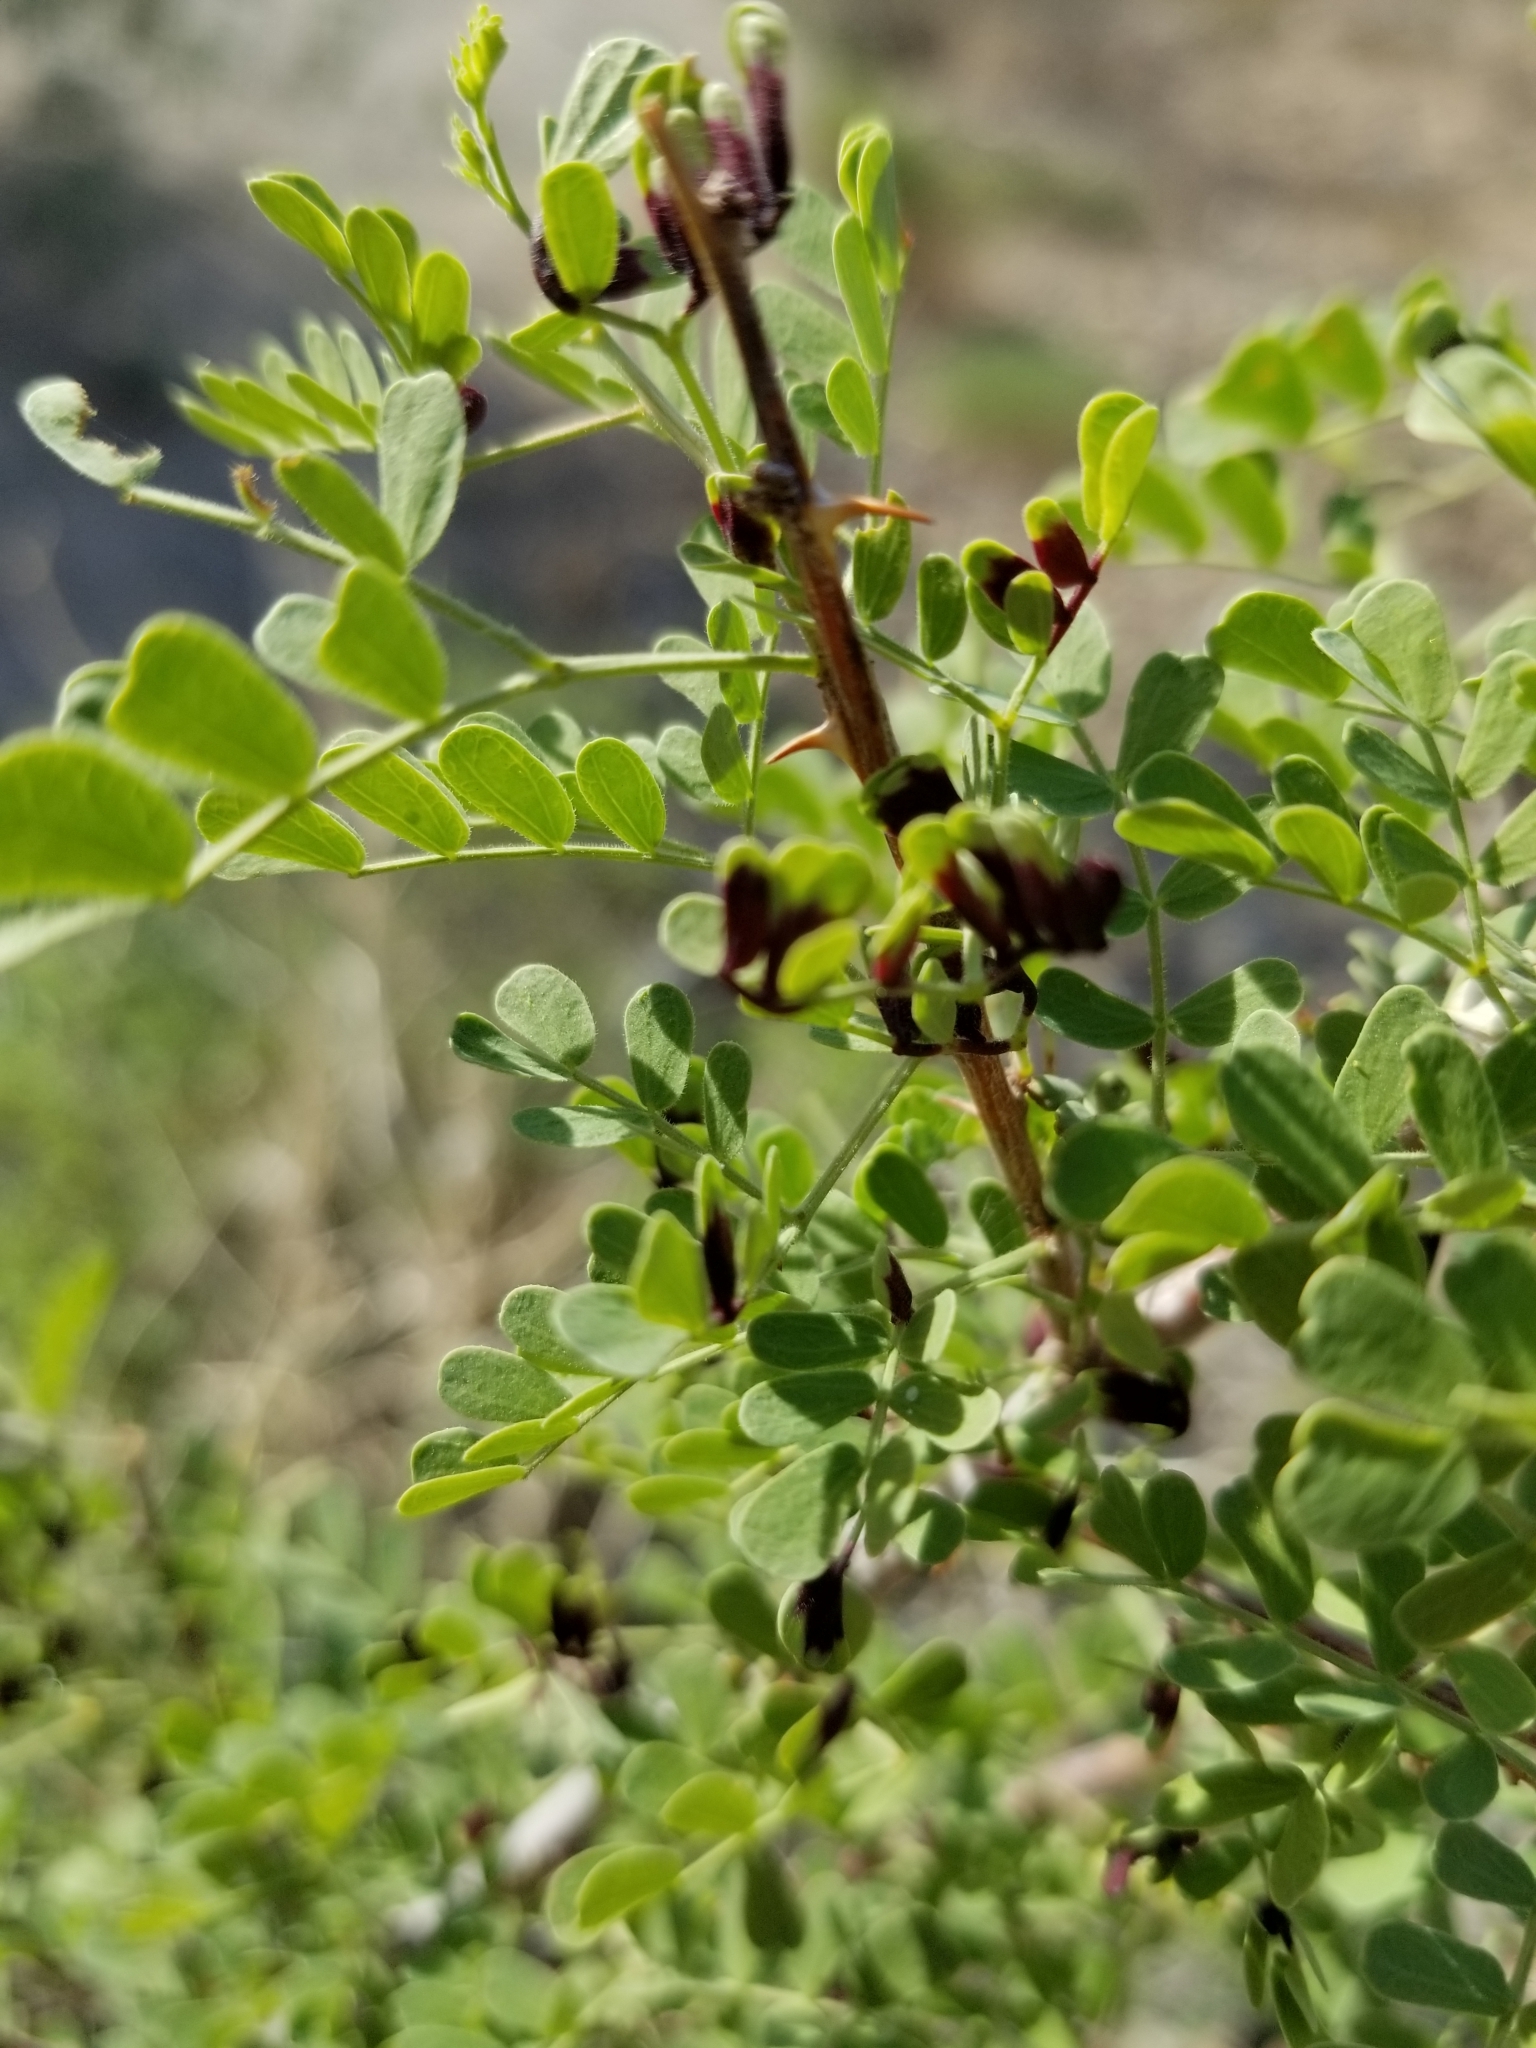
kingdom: Plantae
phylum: Tracheophyta
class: Magnoliopsida
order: Fabales
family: Fabaceae
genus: Senegalia
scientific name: Senegalia greggii
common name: Texas-mimosa
